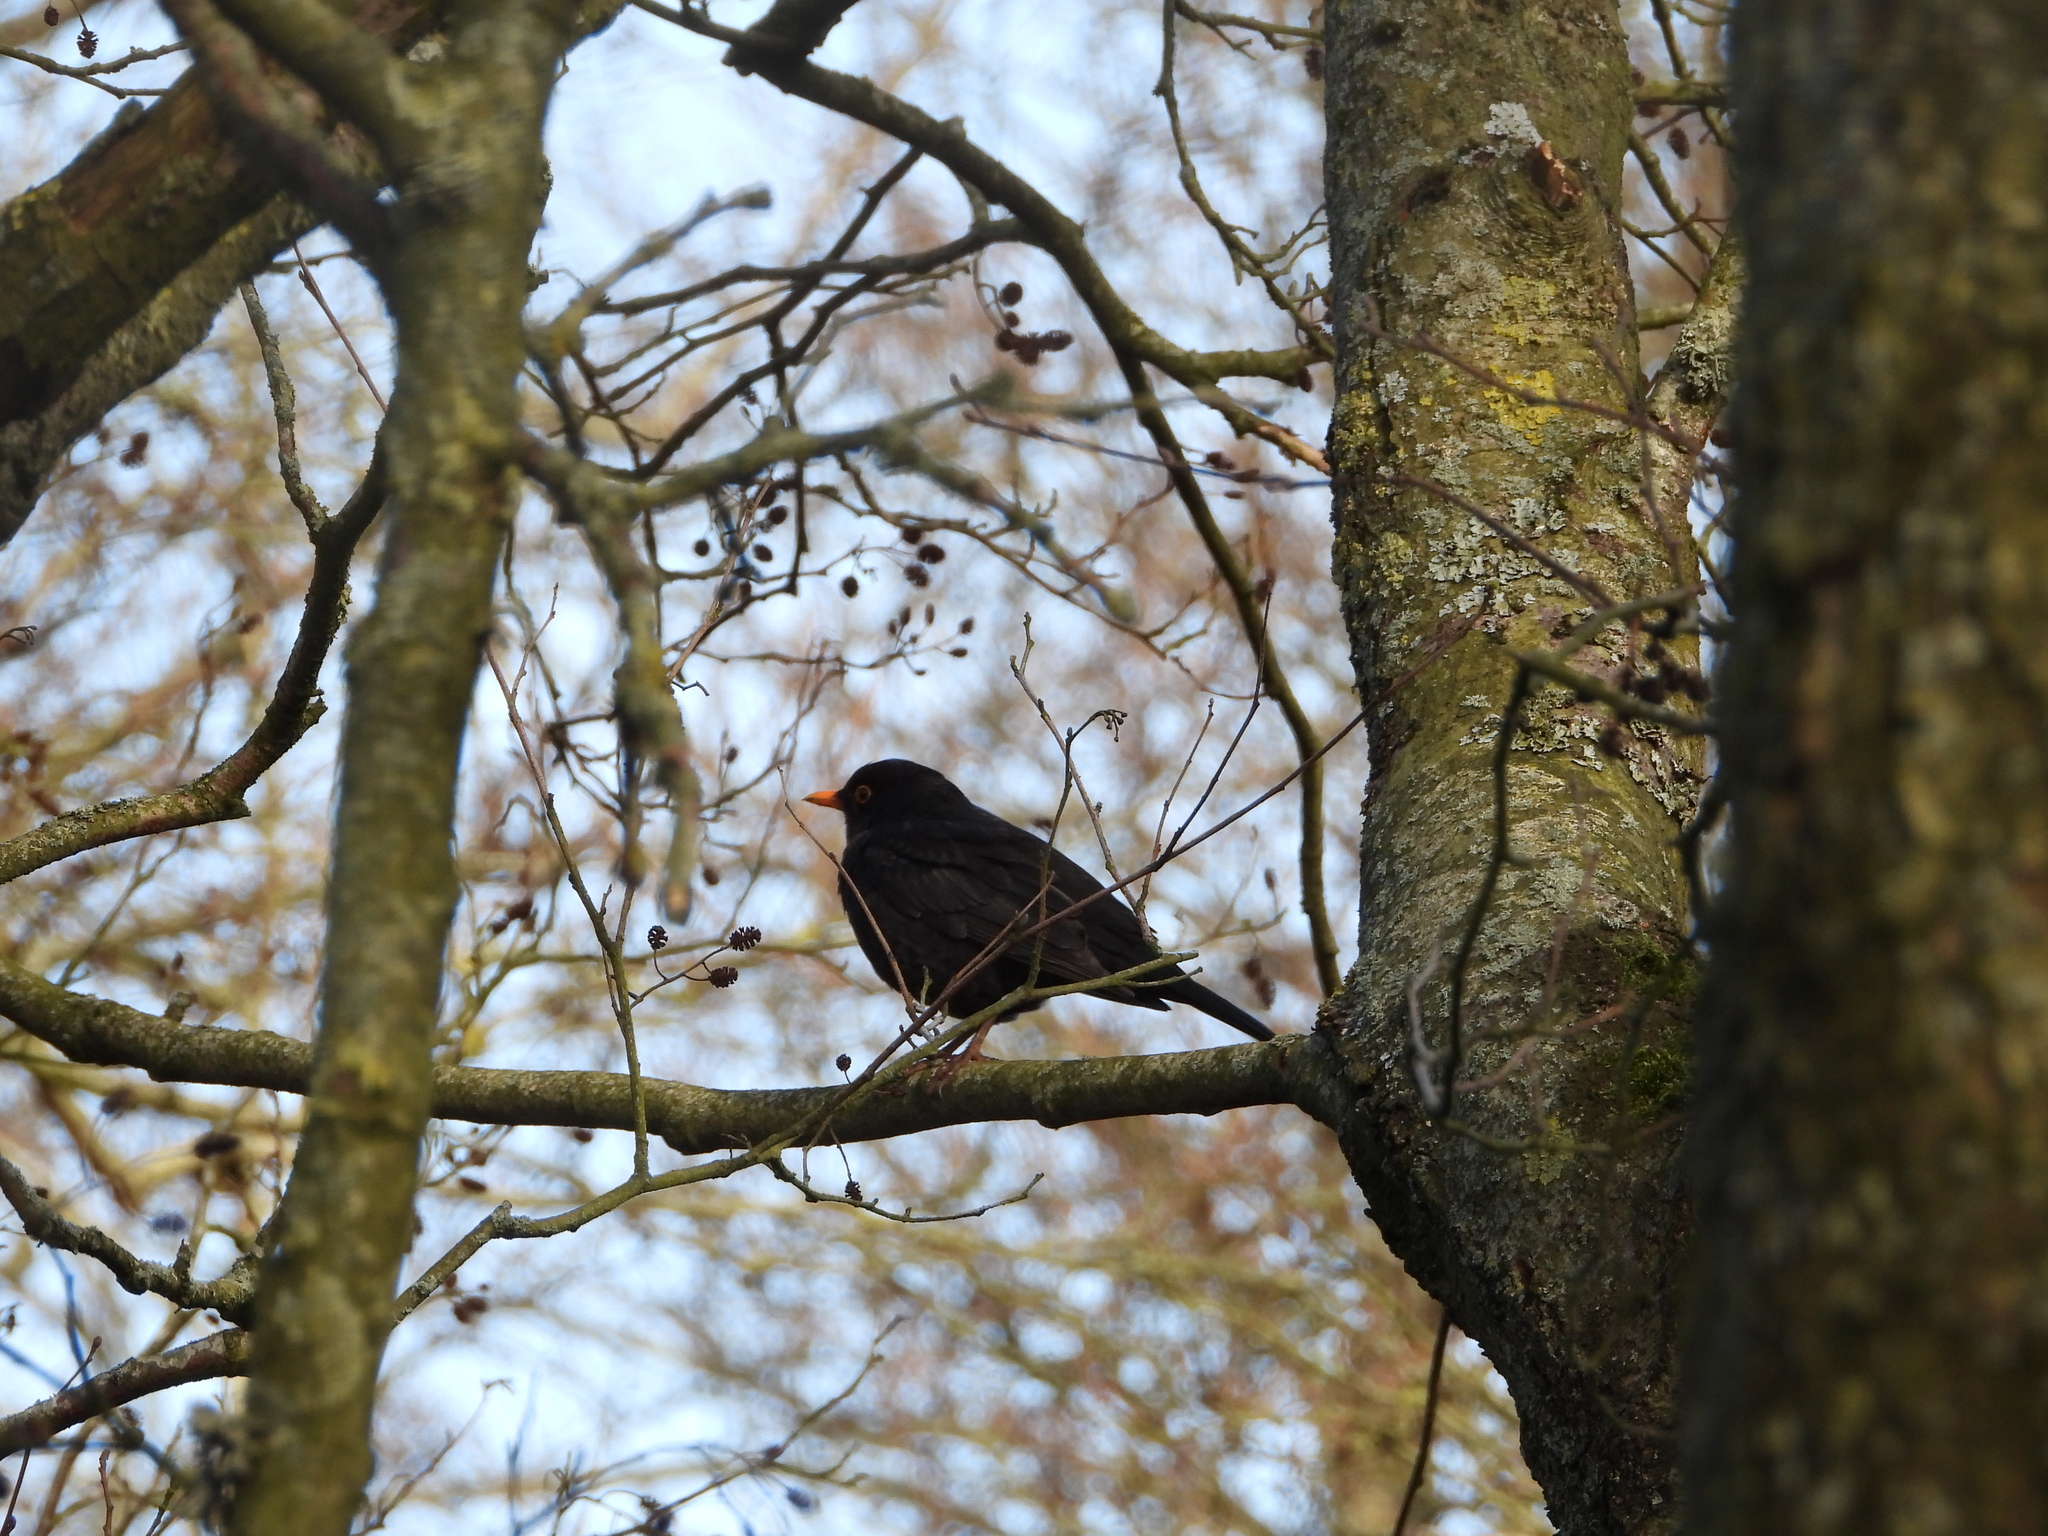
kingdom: Animalia
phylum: Chordata
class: Aves
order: Passeriformes
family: Turdidae
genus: Turdus
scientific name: Turdus merula
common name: Common blackbird
